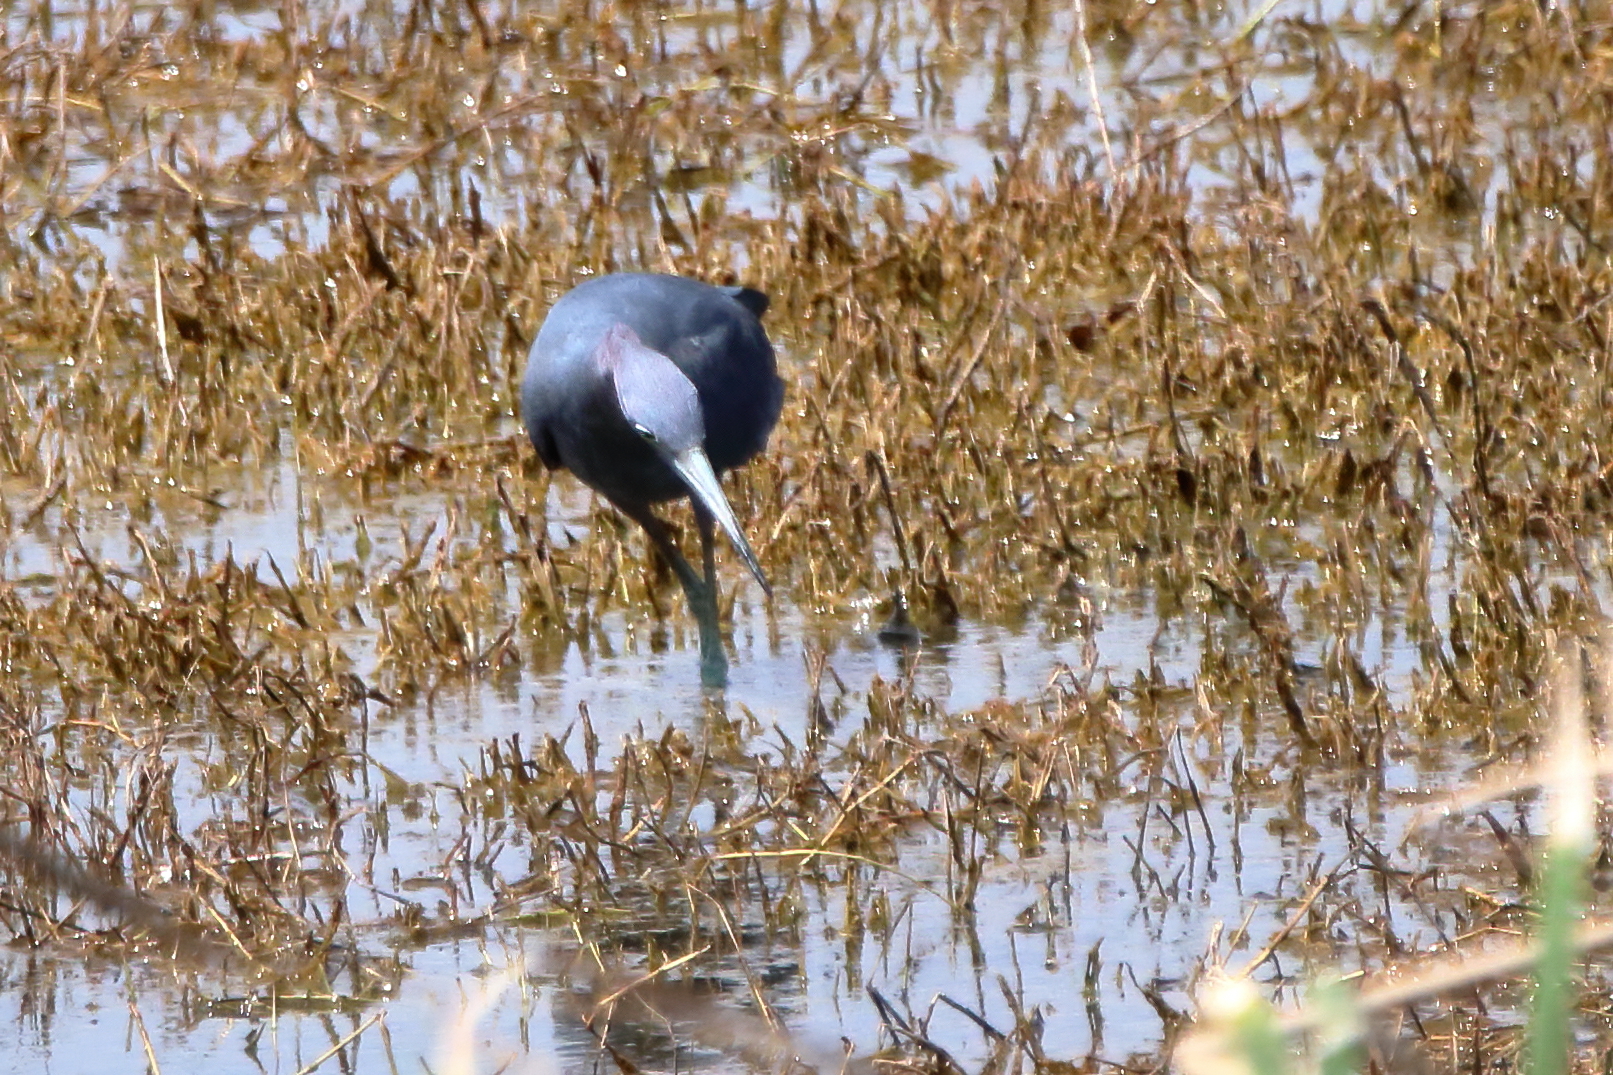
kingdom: Animalia
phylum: Chordata
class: Aves
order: Pelecaniformes
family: Ardeidae
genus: Egretta
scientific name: Egretta caerulea
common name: Little blue heron
